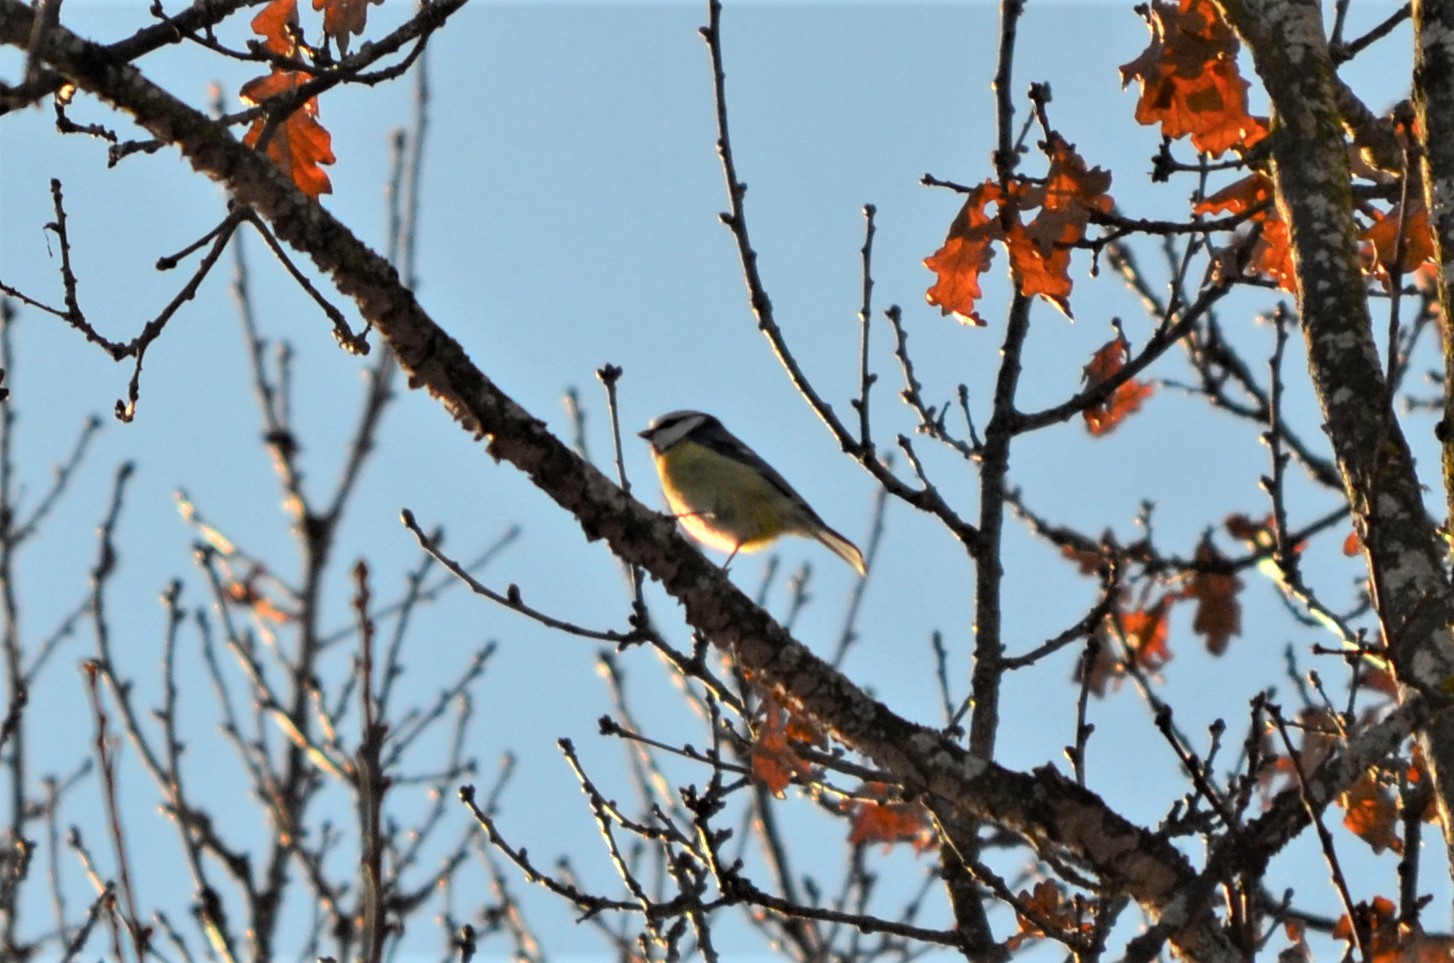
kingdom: Animalia
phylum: Chordata
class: Aves
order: Passeriformes
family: Paridae
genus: Cyanistes
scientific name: Cyanistes caeruleus
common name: Eurasian blue tit
